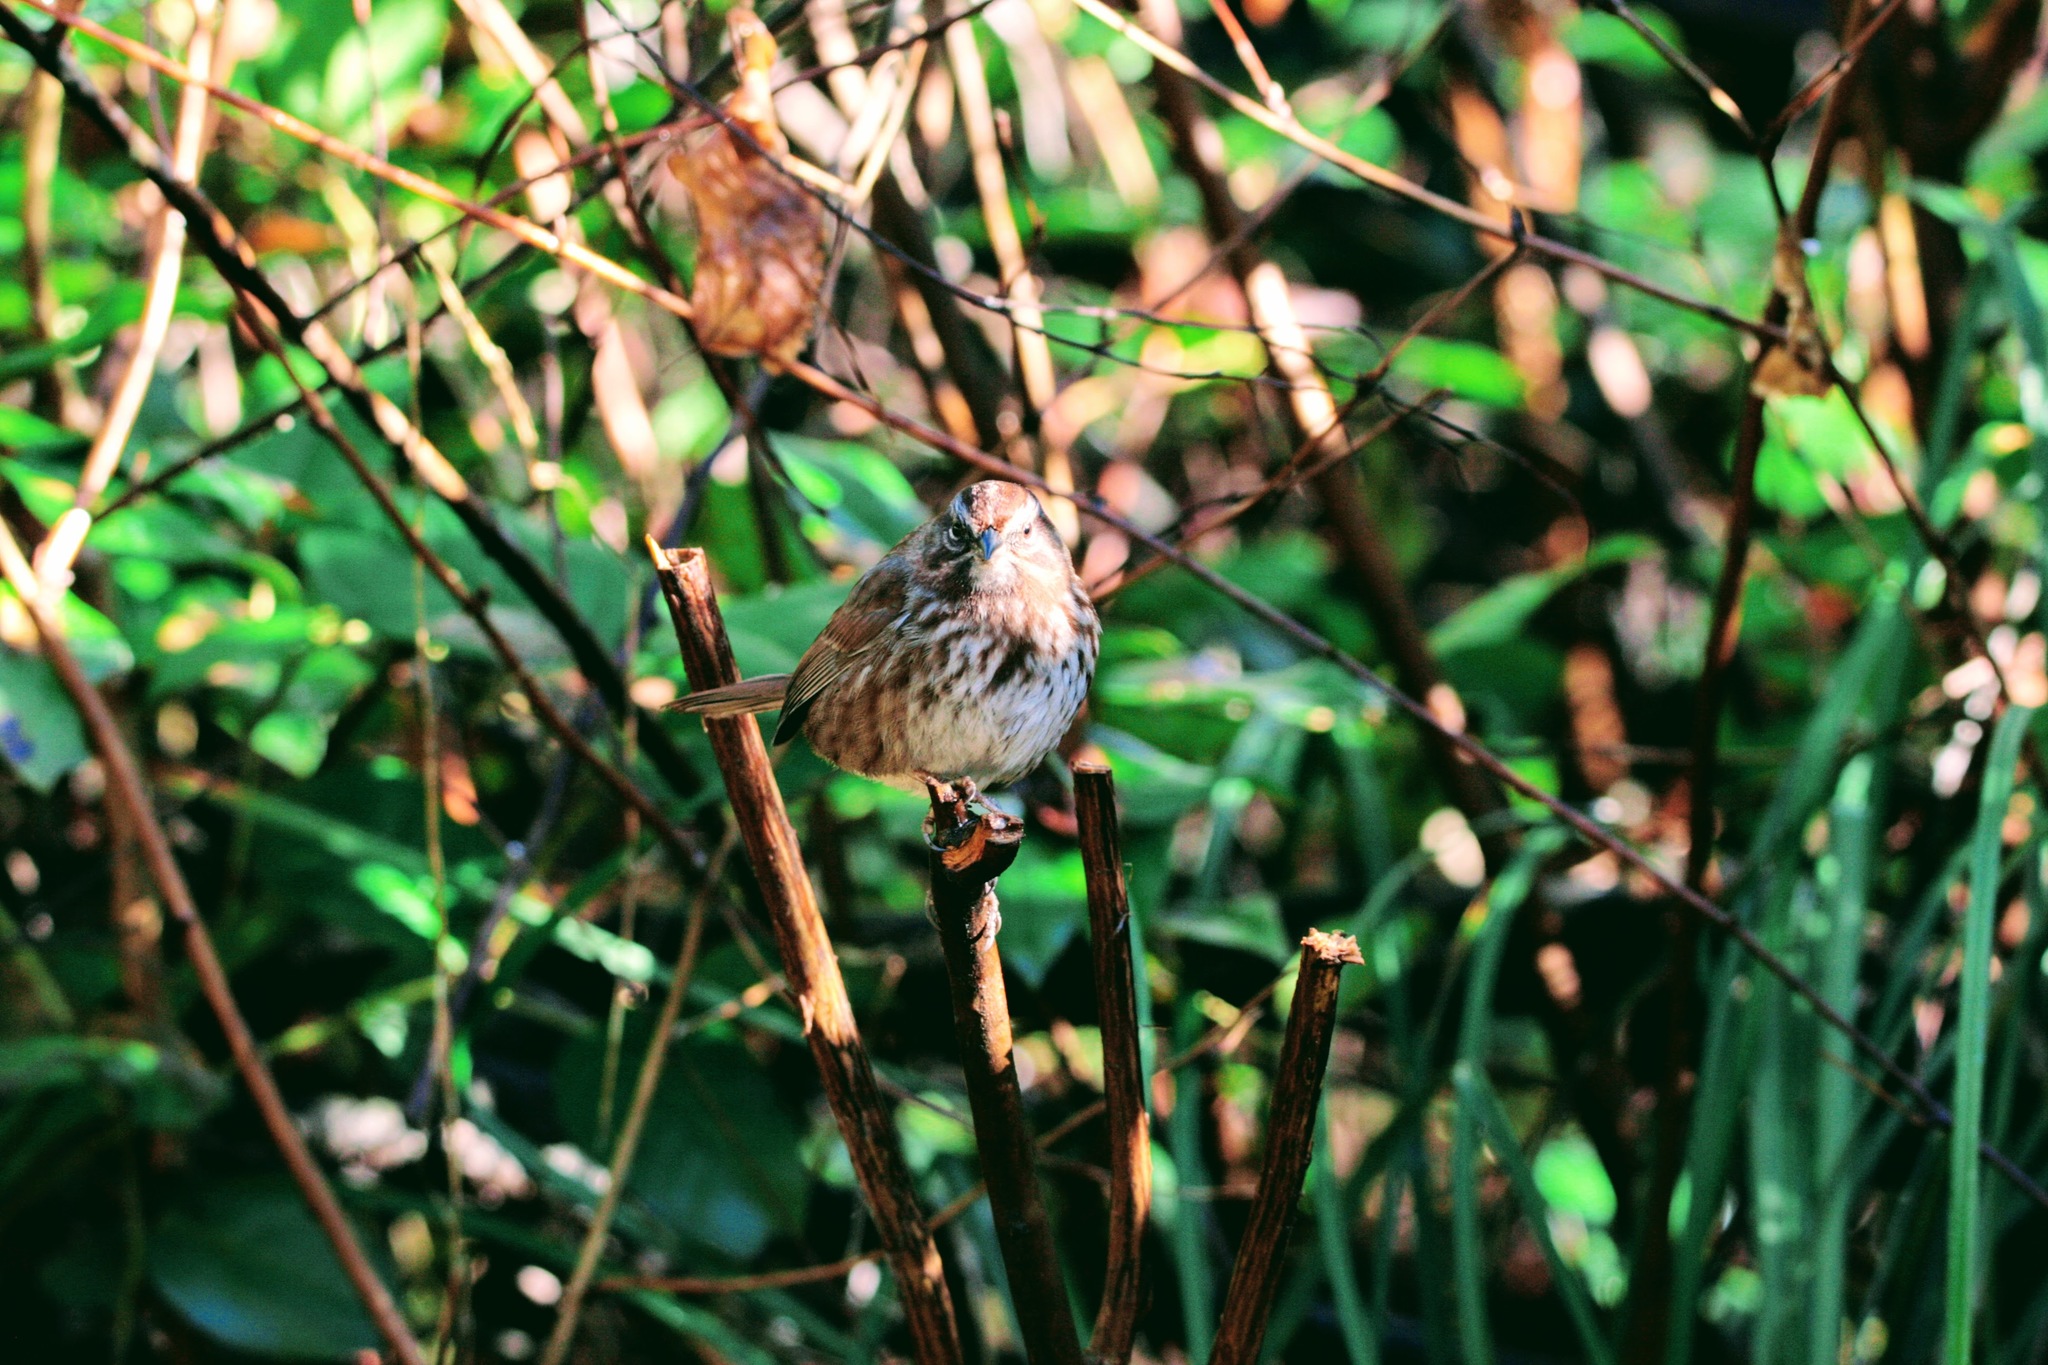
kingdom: Animalia
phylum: Chordata
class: Aves
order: Passeriformes
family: Passerellidae
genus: Melospiza
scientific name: Melospiza melodia
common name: Song sparrow
